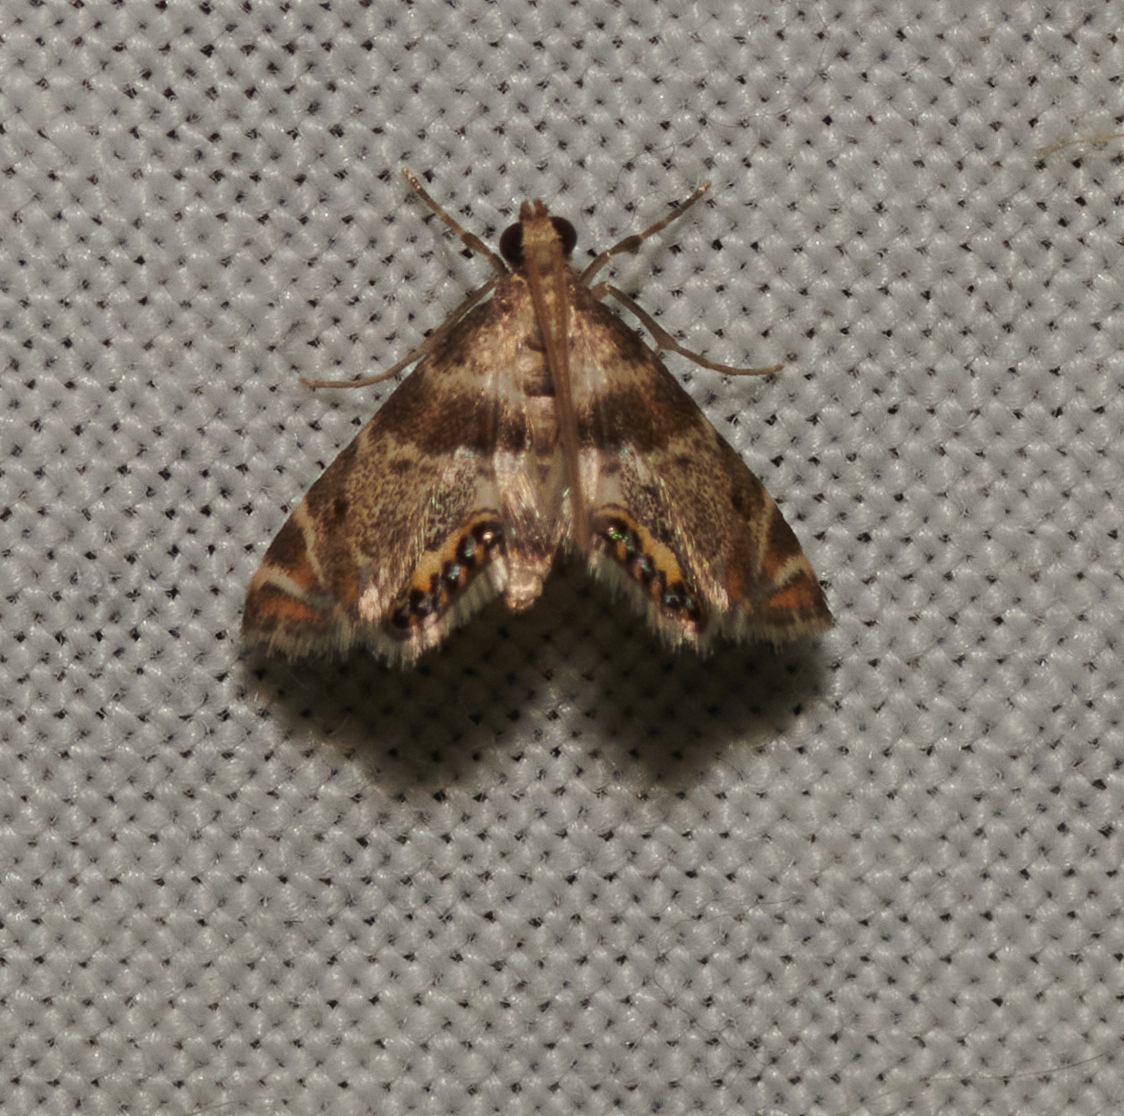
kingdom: Animalia
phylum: Arthropoda
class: Insecta
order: Lepidoptera
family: Crambidae
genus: Petrophila
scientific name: Petrophila fulicalis
